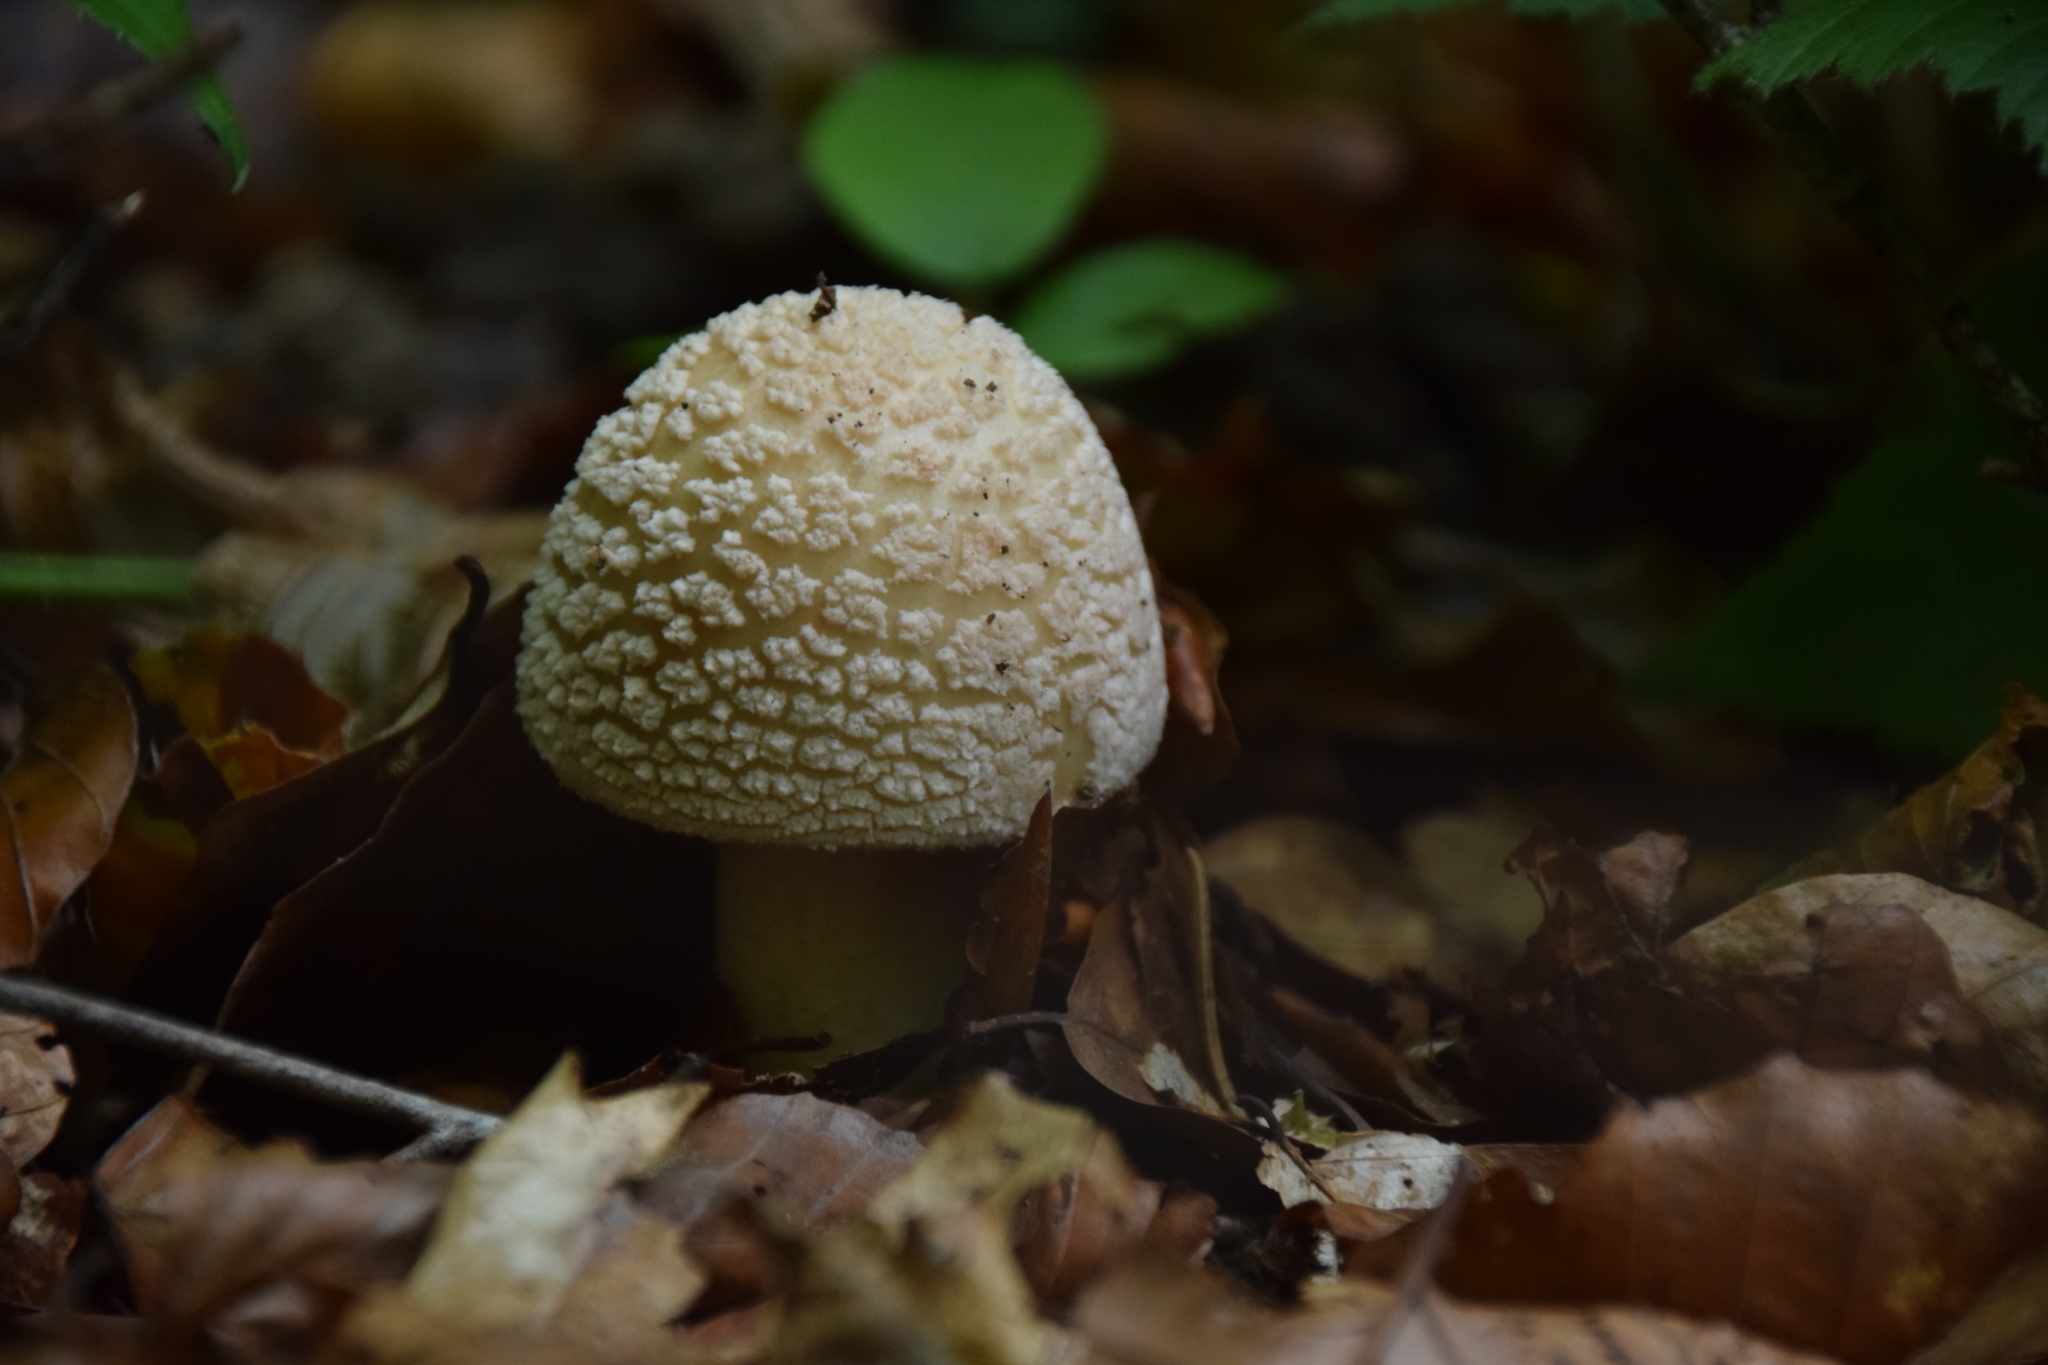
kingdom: Fungi
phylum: Basidiomycota
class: Agaricomycetes
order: Agaricales
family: Amanitaceae
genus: Amanita
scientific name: Amanita rubescens
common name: Blusher
